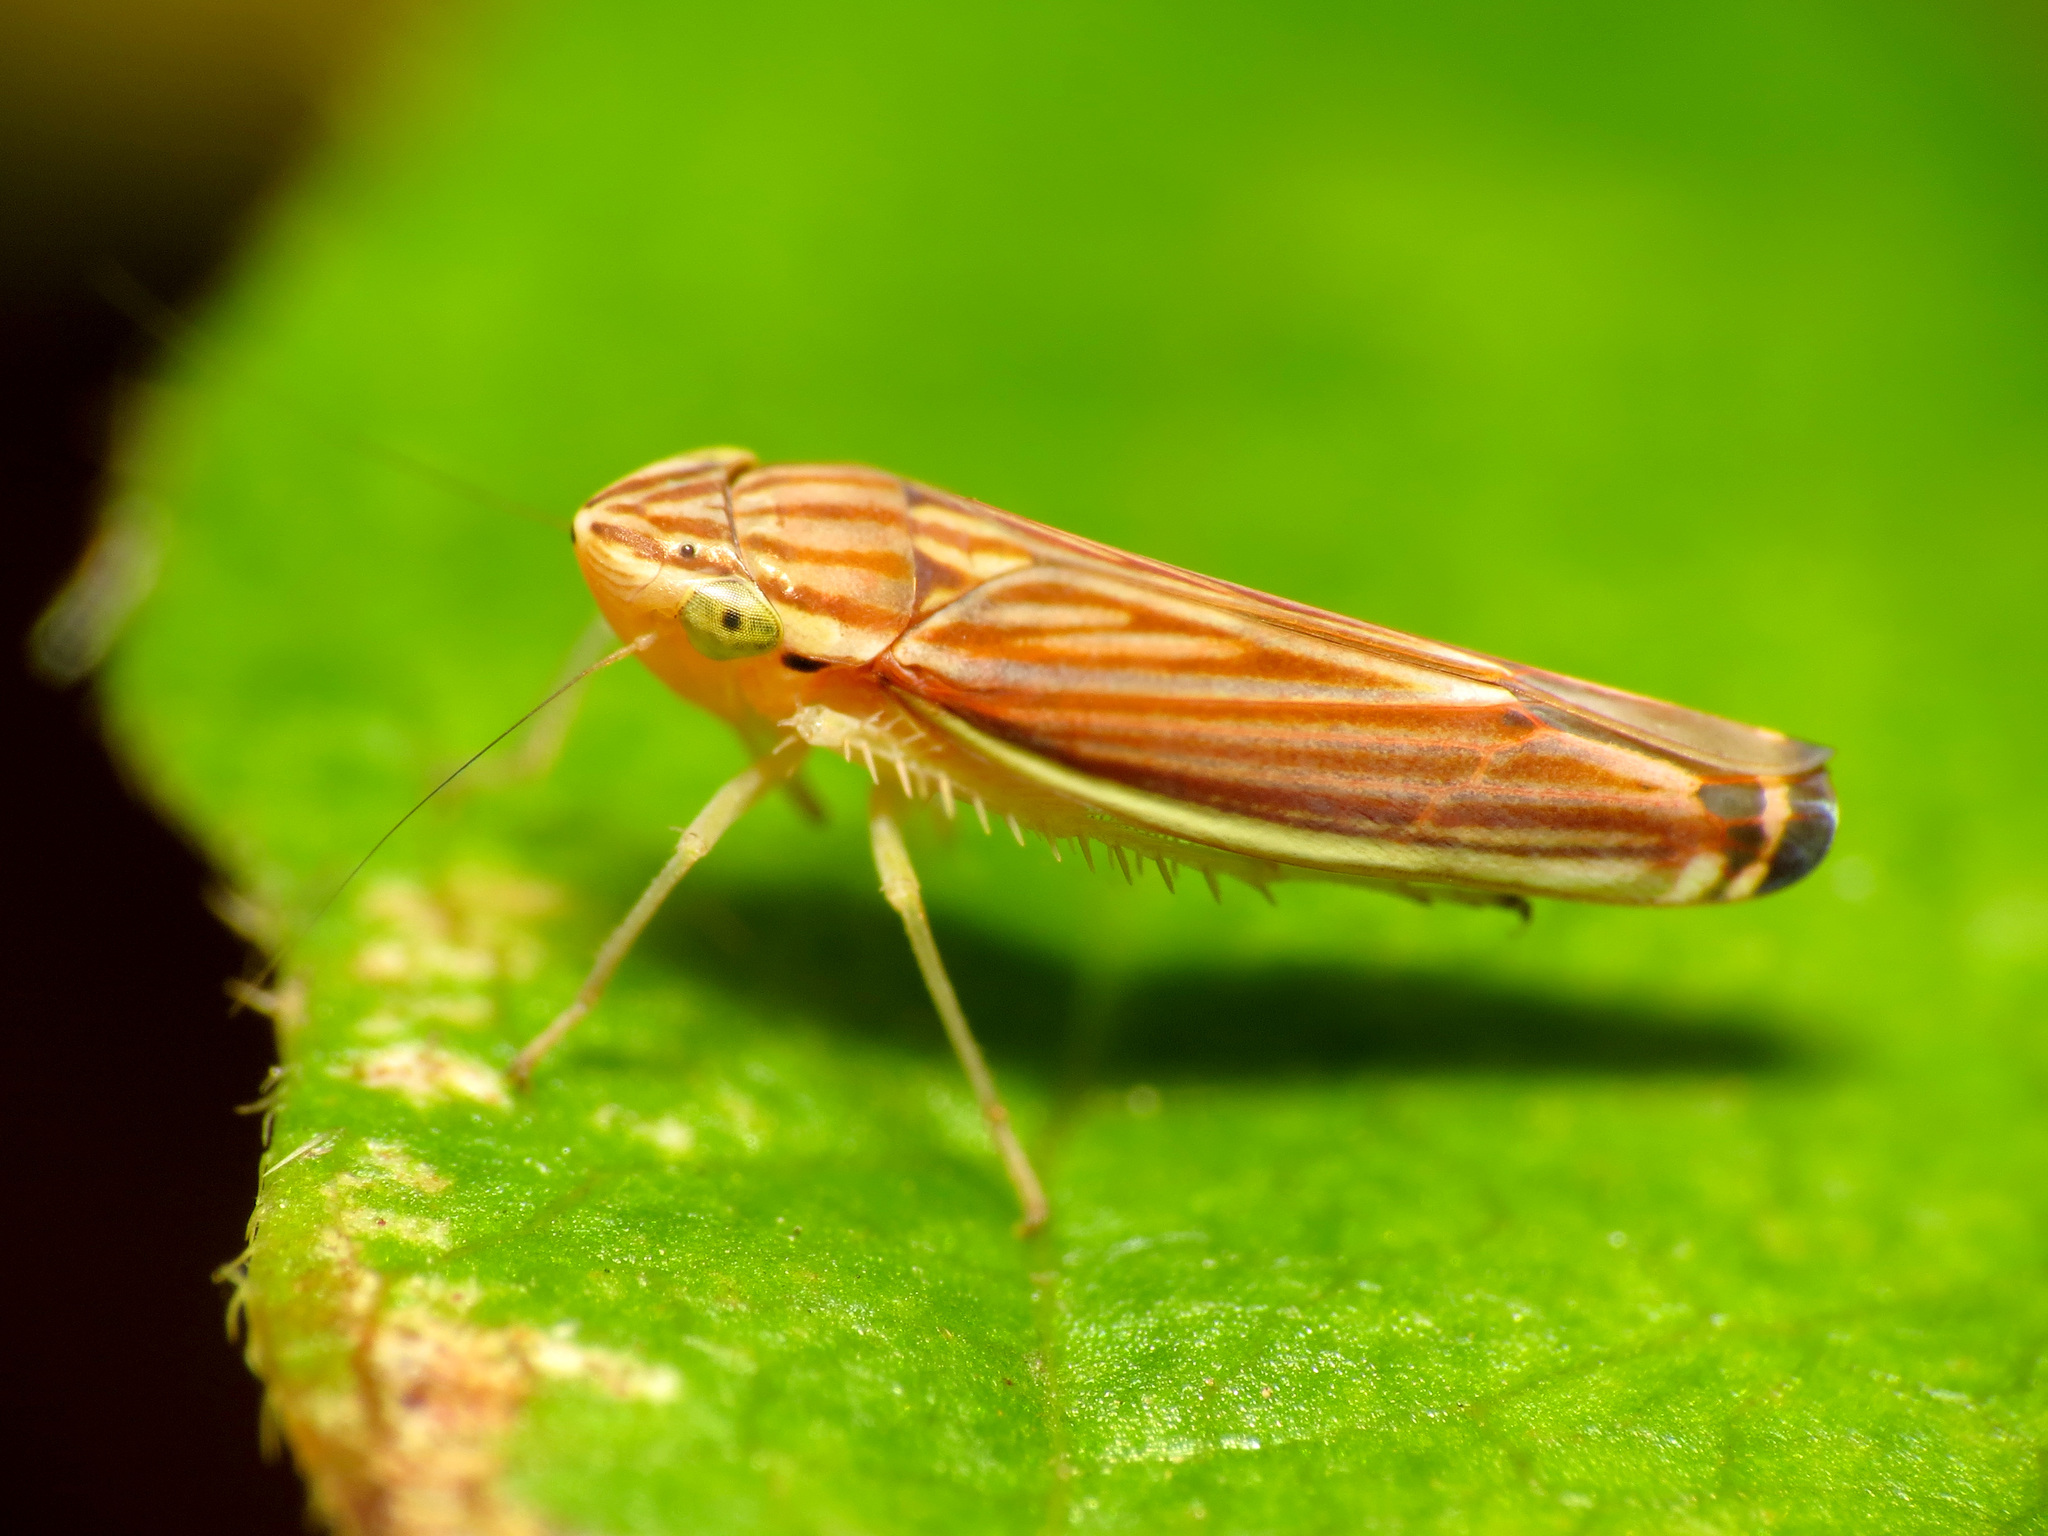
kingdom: Animalia
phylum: Arthropoda
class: Insecta
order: Hemiptera
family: Cicadellidae
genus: Sibovia
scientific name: Sibovia occatoria
